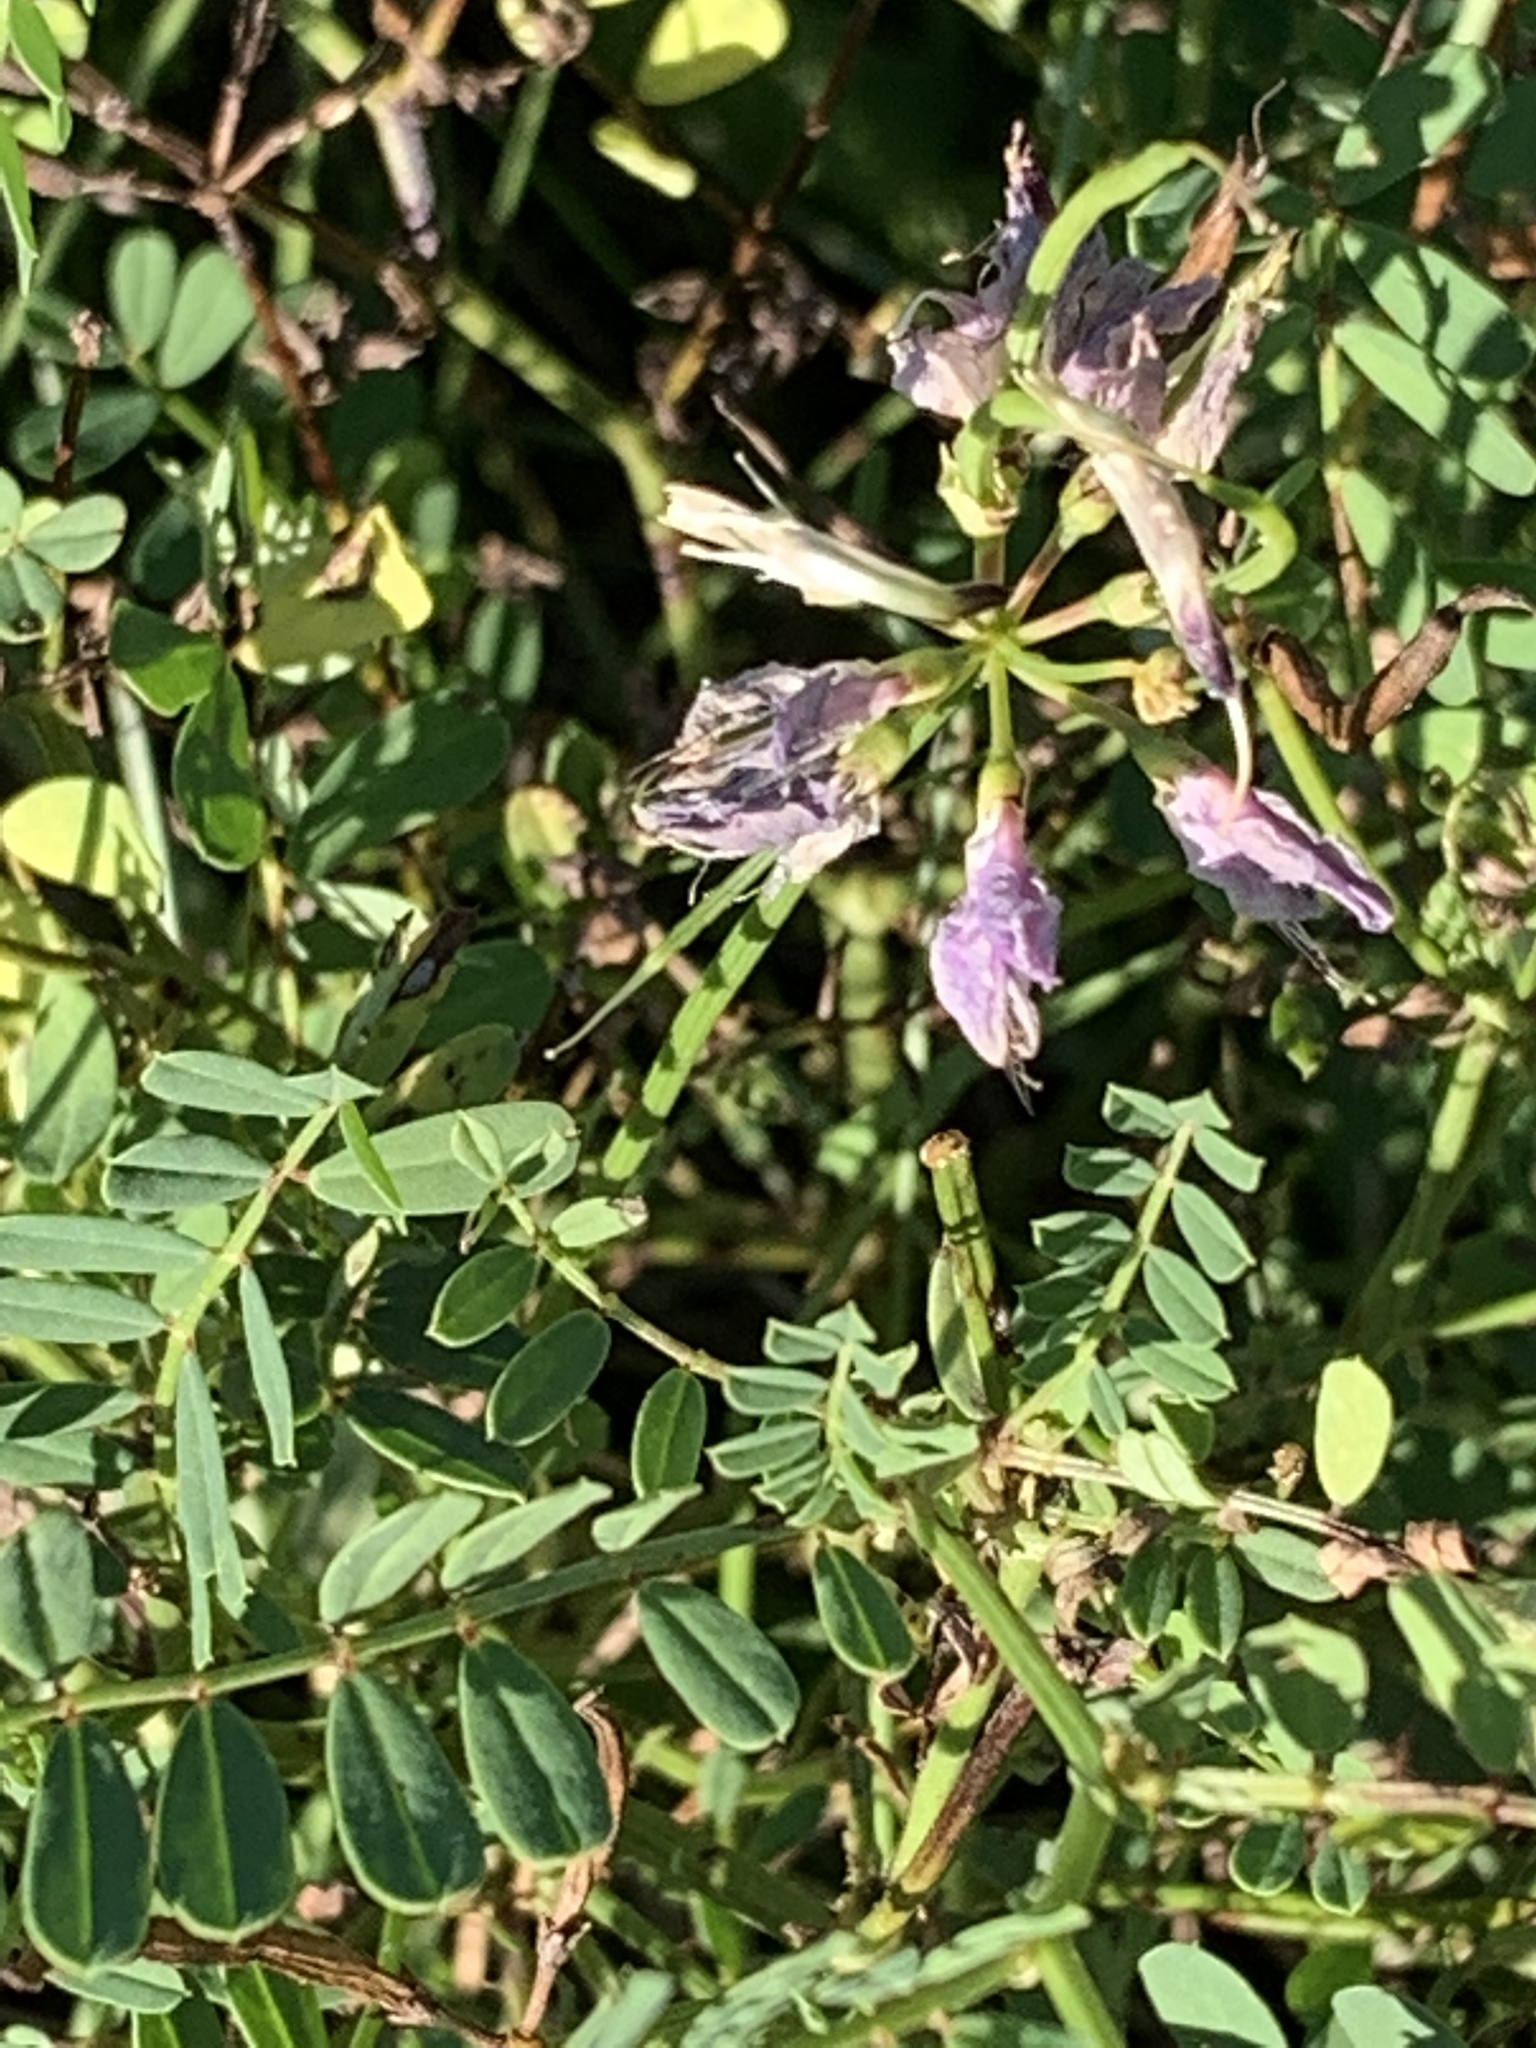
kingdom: Plantae
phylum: Tracheophyta
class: Magnoliopsida
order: Fabales
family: Fabaceae
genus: Coronilla
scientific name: Coronilla varia
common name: Crownvetch
